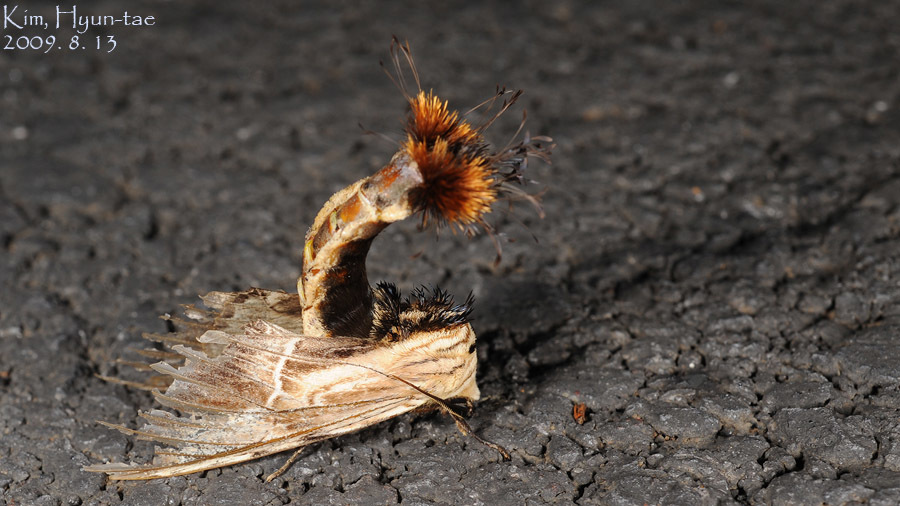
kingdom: Animalia
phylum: Arthropoda
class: Insecta
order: Lepidoptera
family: Notodontidae
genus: Dudusa
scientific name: Dudusa sphingiformis
